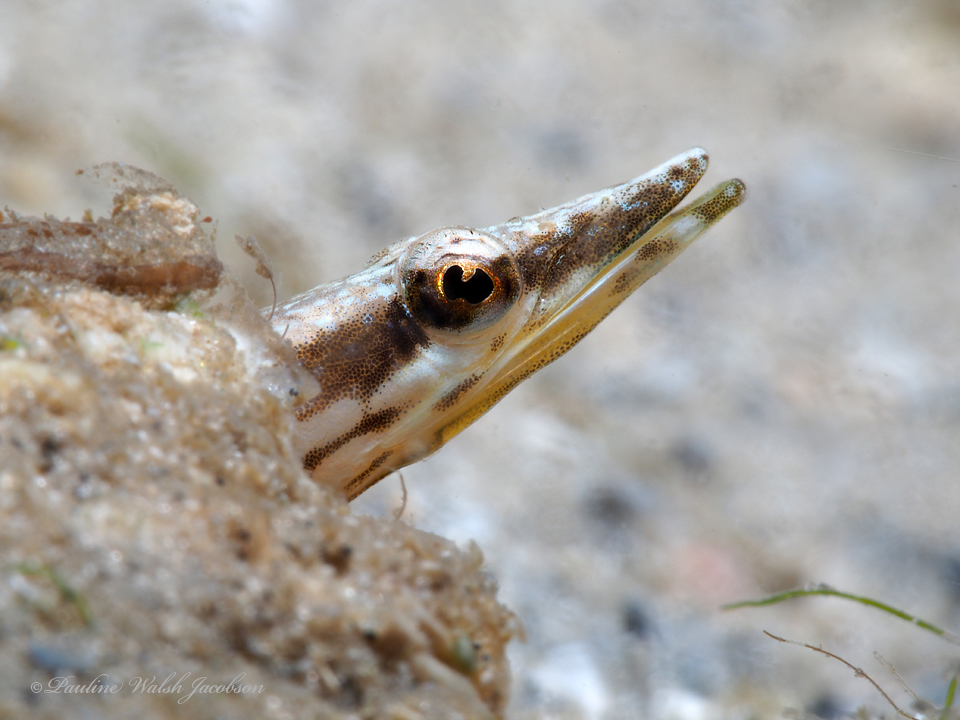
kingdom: Animalia
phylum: Chordata
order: Perciformes
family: Chaenopsidae
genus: Chaenopsis
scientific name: Chaenopsis ocellata
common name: Bluethroat pikeblenny
